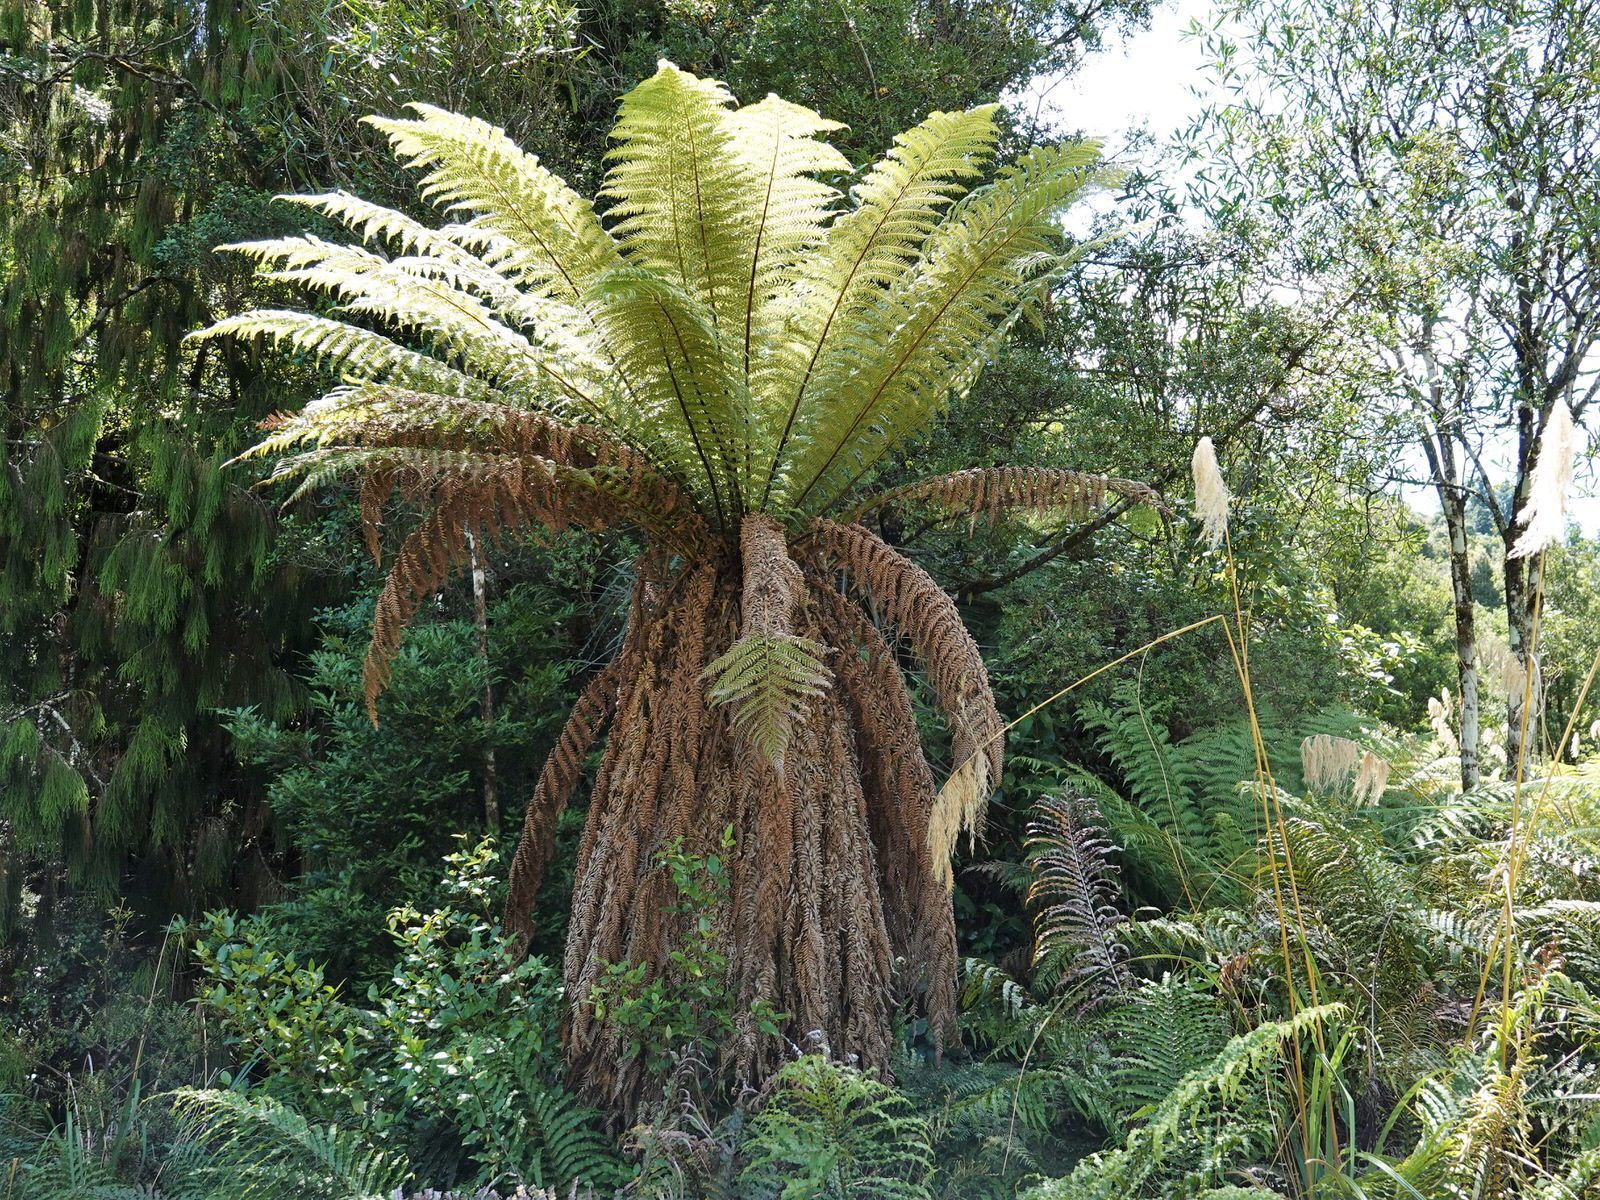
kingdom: Plantae
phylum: Tracheophyta
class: Polypodiopsida
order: Cyatheales
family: Dicksoniaceae
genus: Dicksonia
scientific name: Dicksonia fibrosa
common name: Golden tree fern
